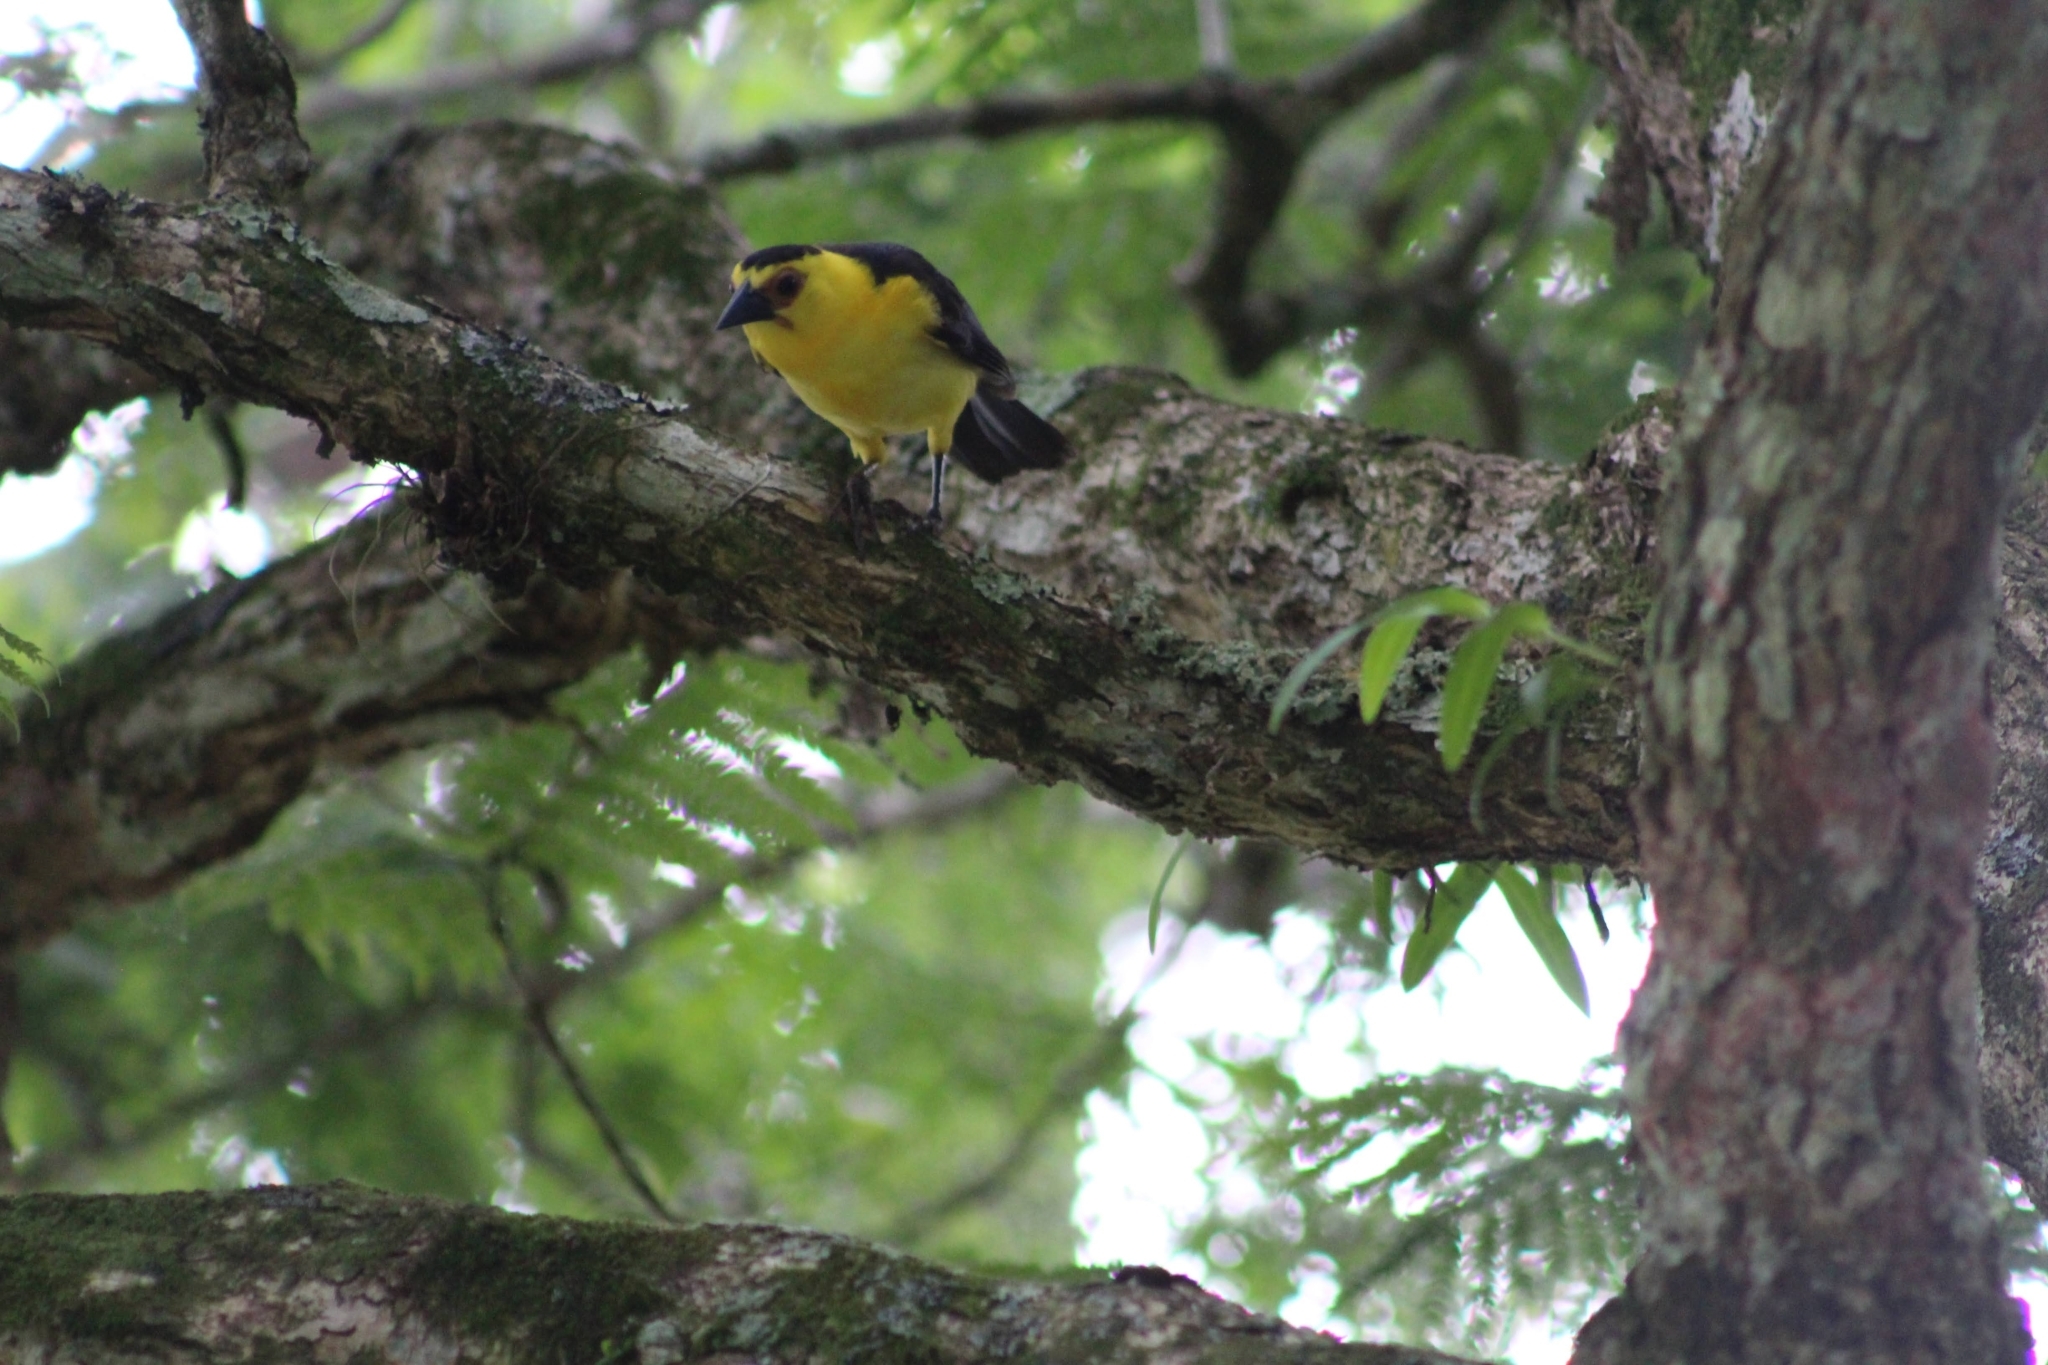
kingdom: Animalia
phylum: Chordata
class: Aves
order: Passeriformes
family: Icteridae
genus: Gymnomystax
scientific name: Gymnomystax mexicanus
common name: Oriole blackbird
